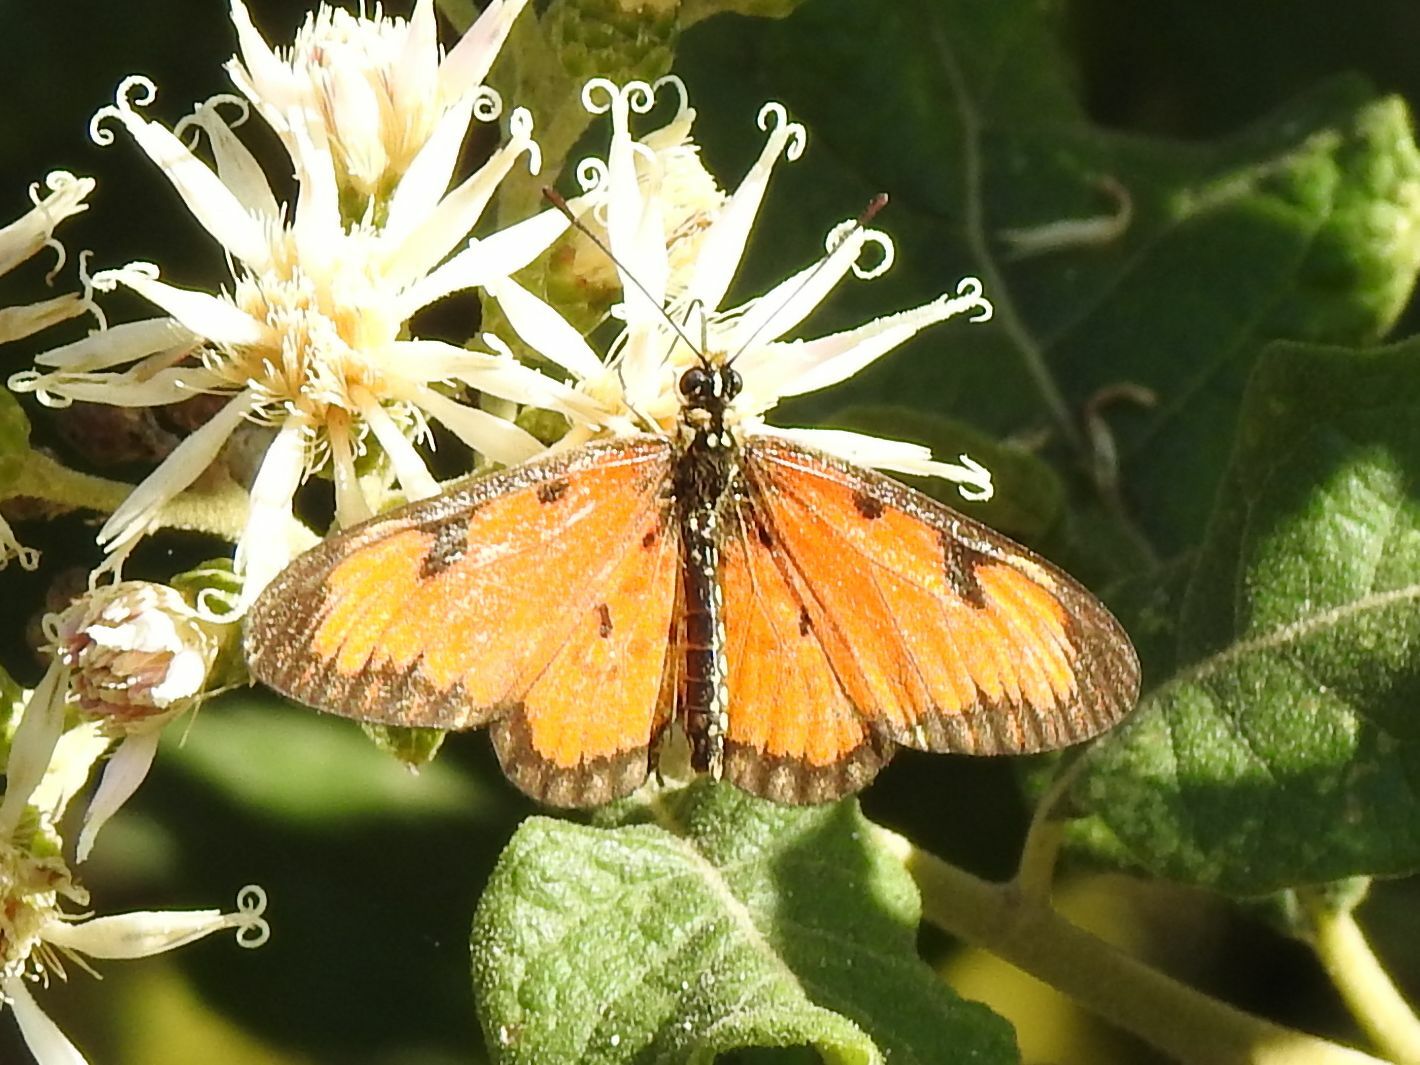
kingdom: Animalia
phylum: Arthropoda
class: Insecta
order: Lepidoptera
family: Nymphalidae
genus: Acraea
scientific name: Acraea Telchinia serena
